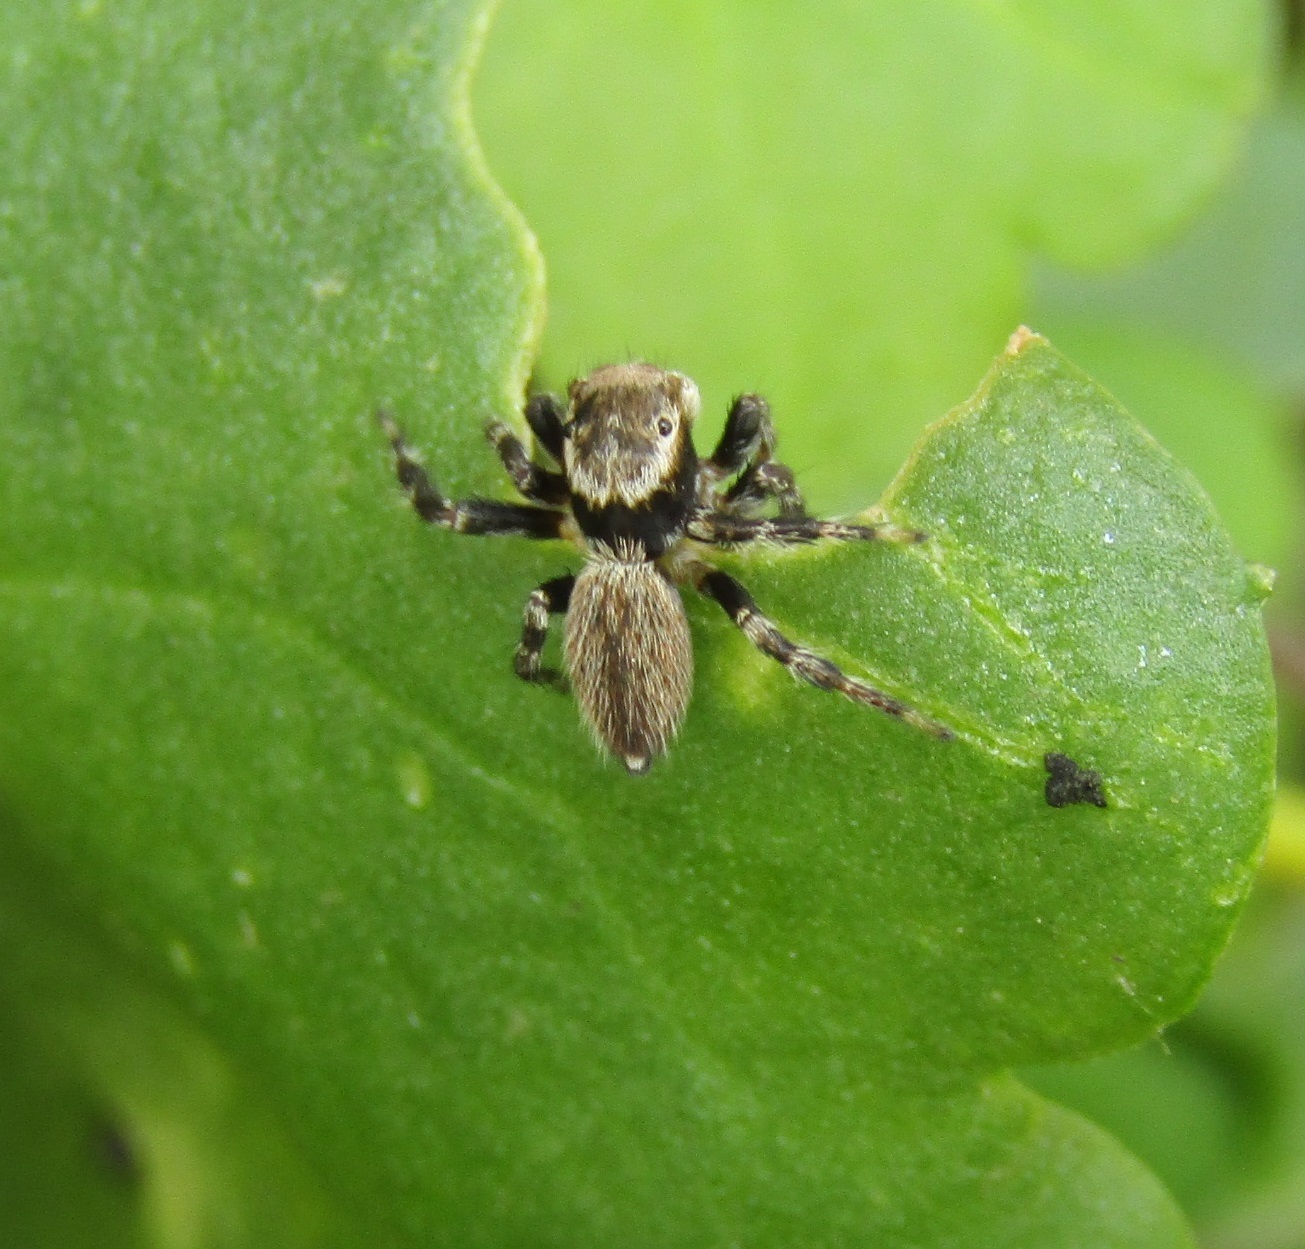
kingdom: Animalia
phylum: Arthropoda
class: Arachnida
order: Araneae
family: Salticidae
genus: Maratus
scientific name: Maratus griseus
